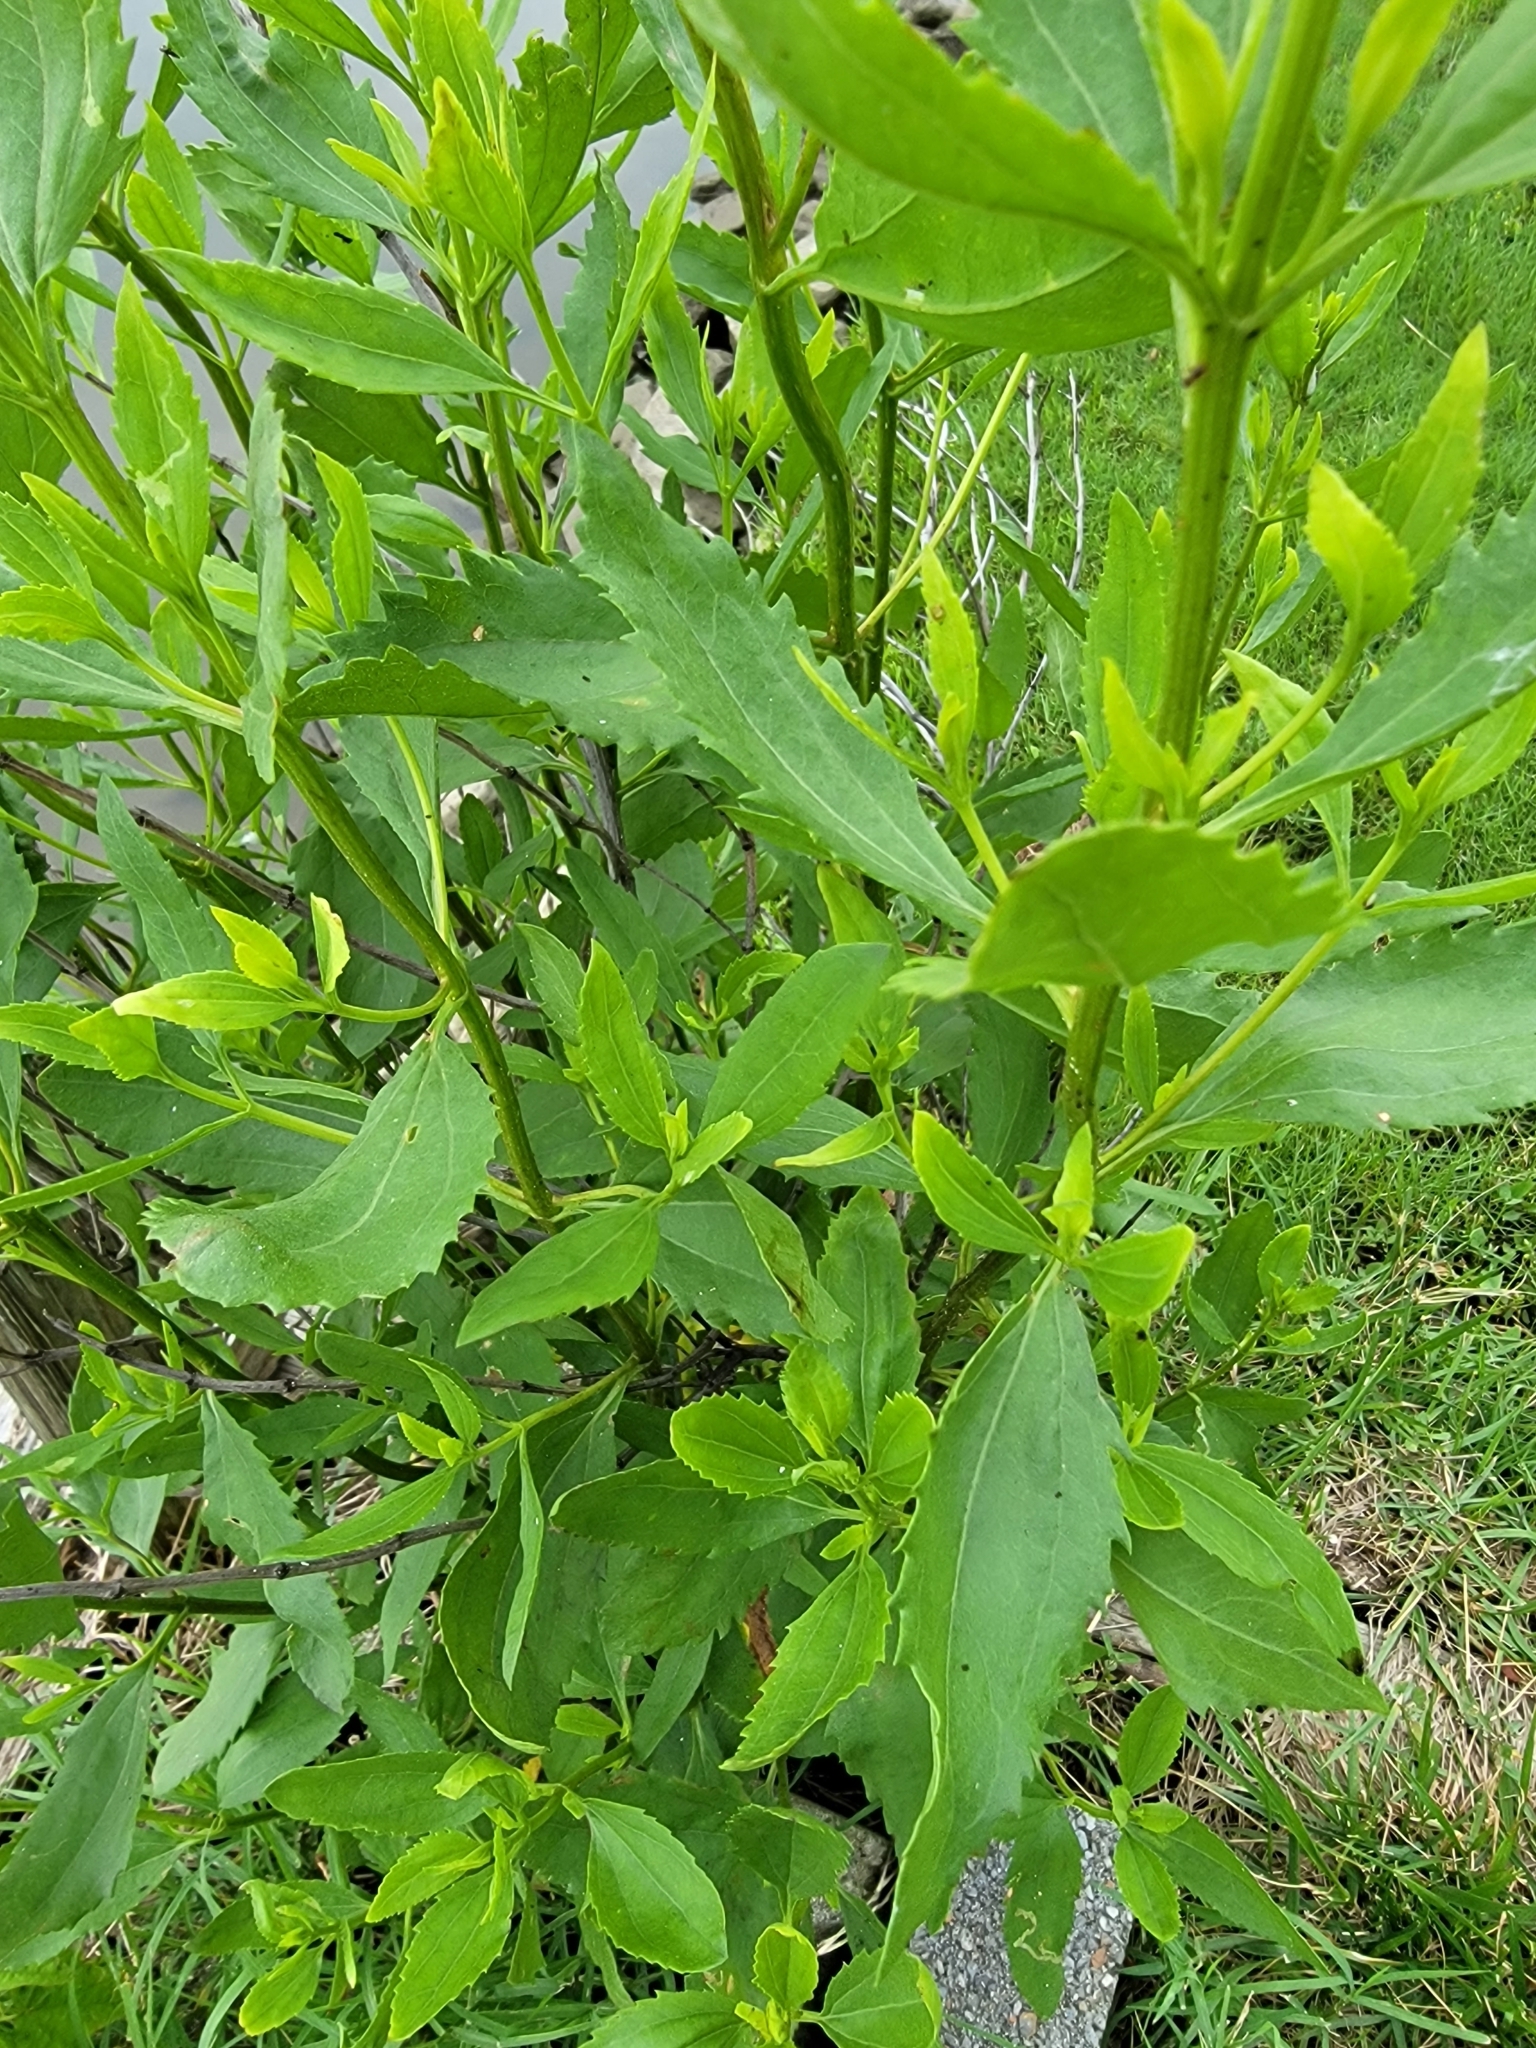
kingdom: Plantae
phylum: Tracheophyta
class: Magnoliopsida
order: Asterales
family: Asteraceae
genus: Iva
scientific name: Iva frutescens
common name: Big-leaved marsh-elder
